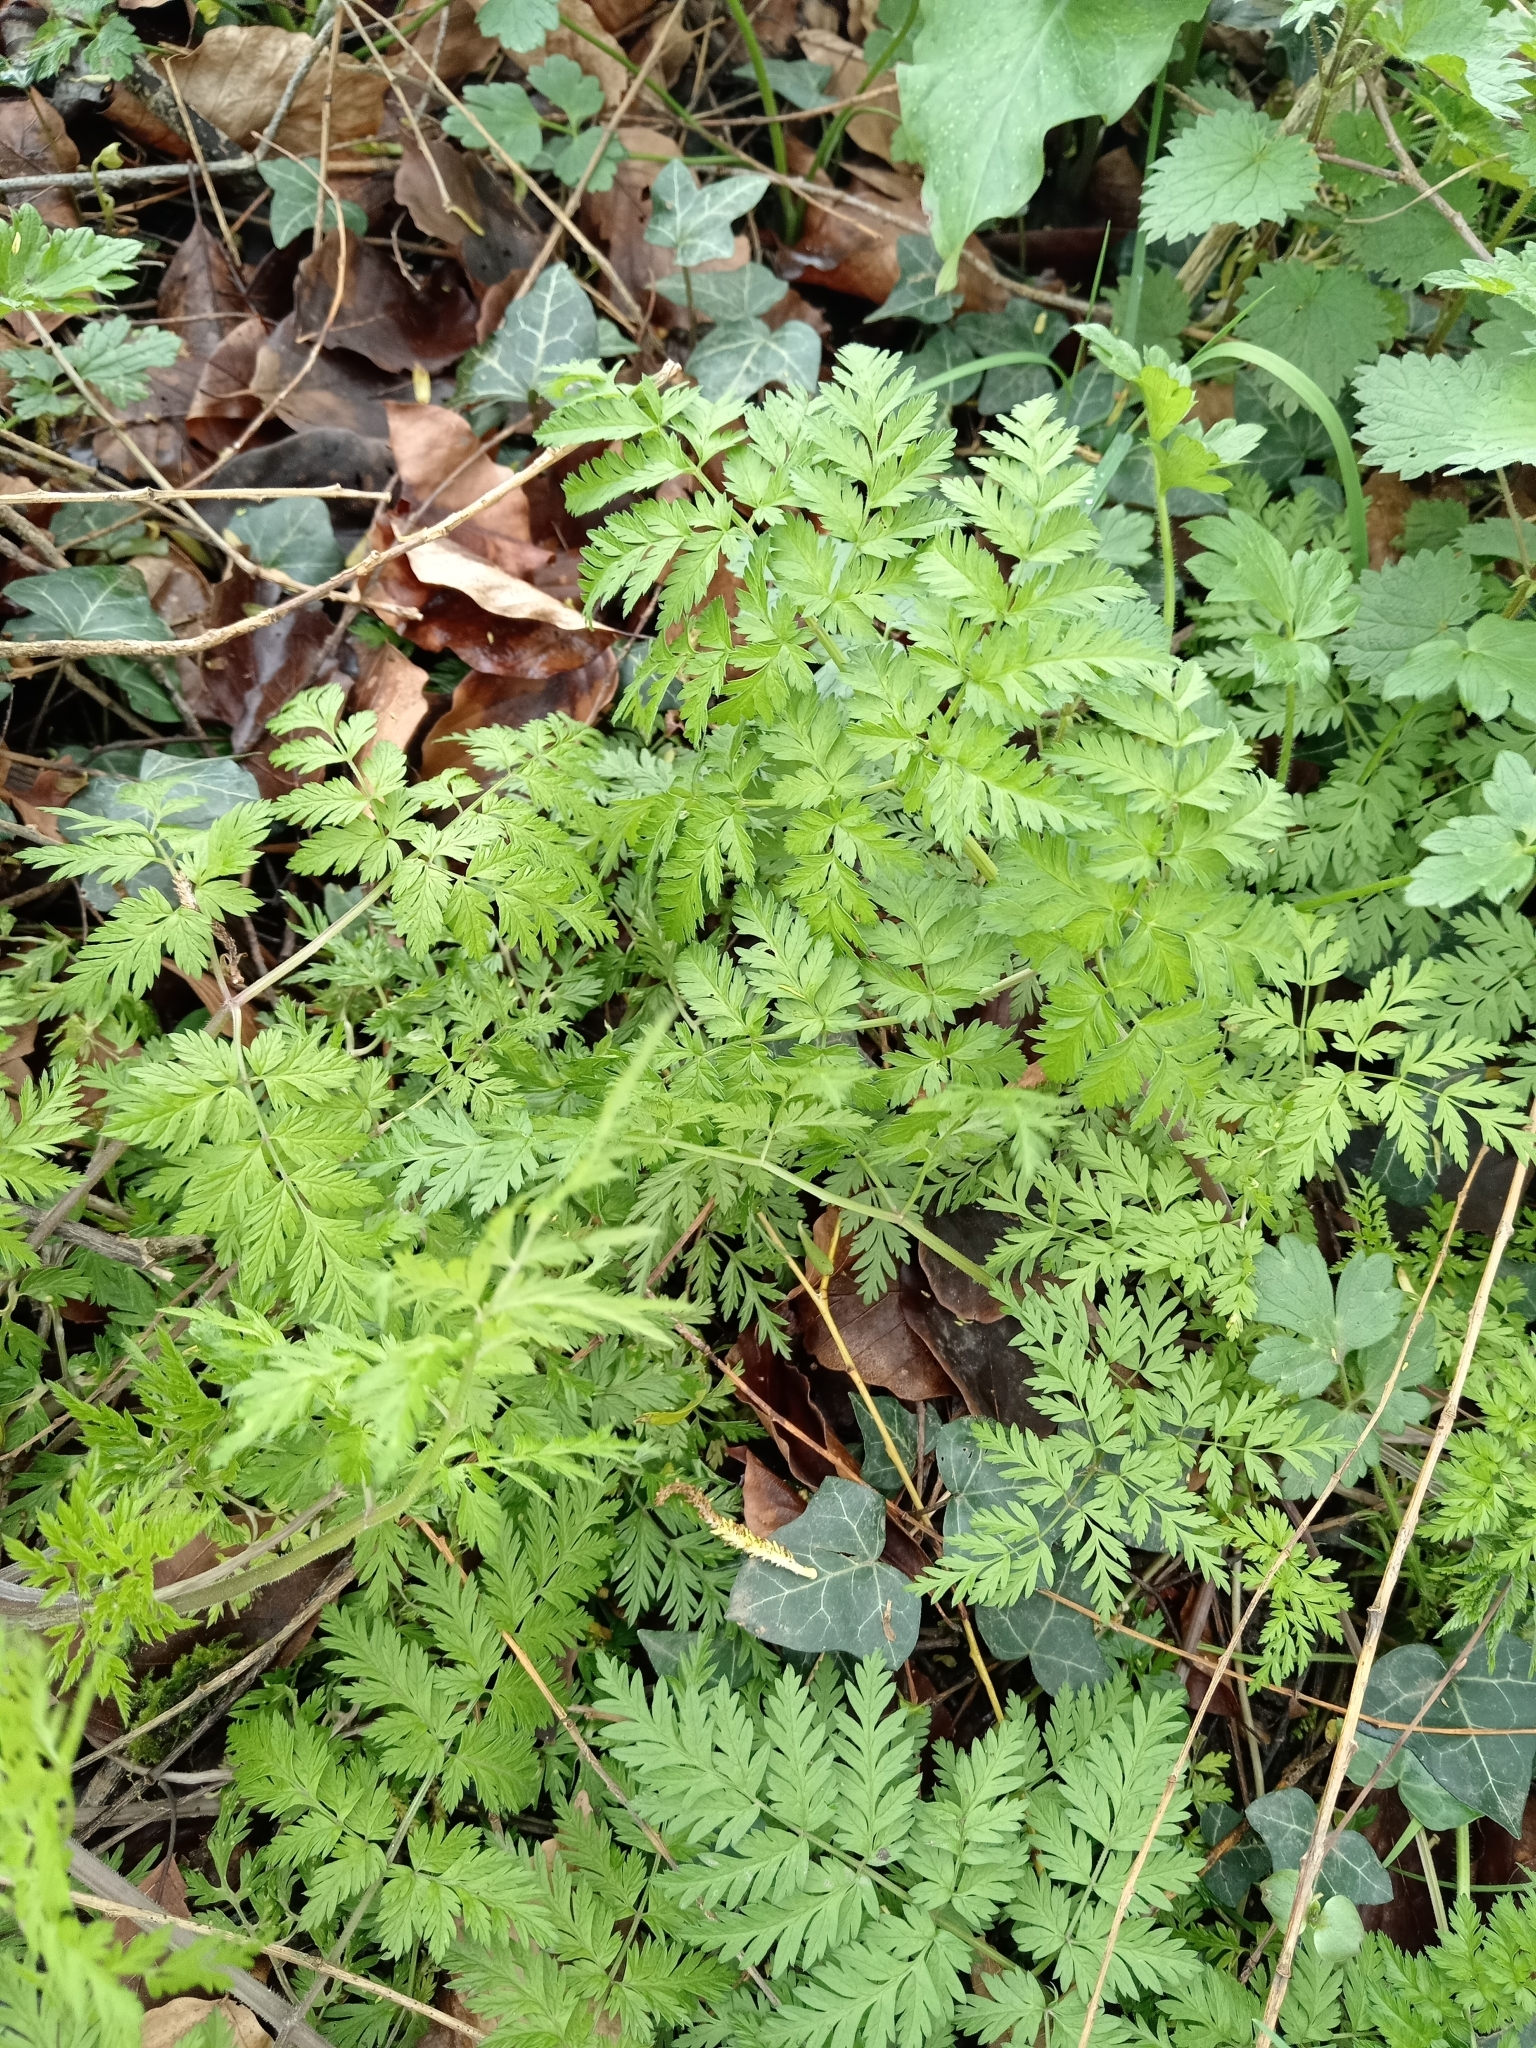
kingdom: Plantae
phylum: Tracheophyta
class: Magnoliopsida
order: Apiales
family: Apiaceae
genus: Anthriscus
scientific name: Anthriscus sylvestris
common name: Cow parsley
